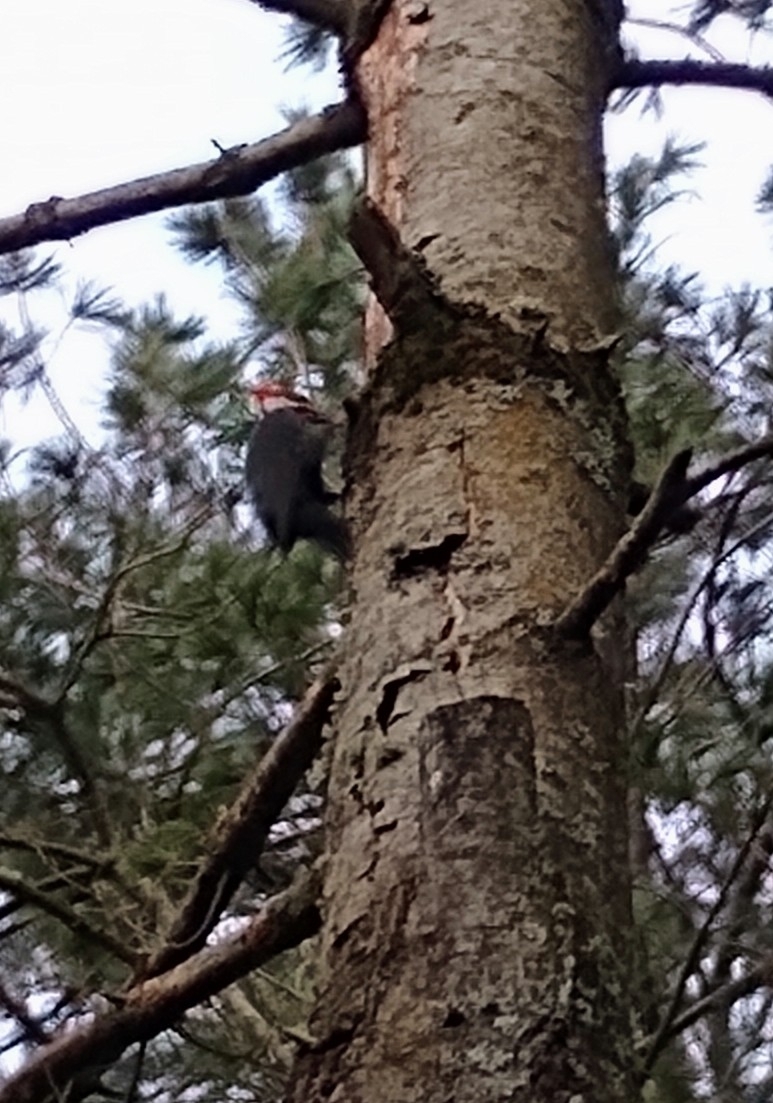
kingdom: Animalia
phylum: Chordata
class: Aves
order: Piciformes
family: Picidae
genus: Dryocopus
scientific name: Dryocopus pileatus
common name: Pileated woodpecker
